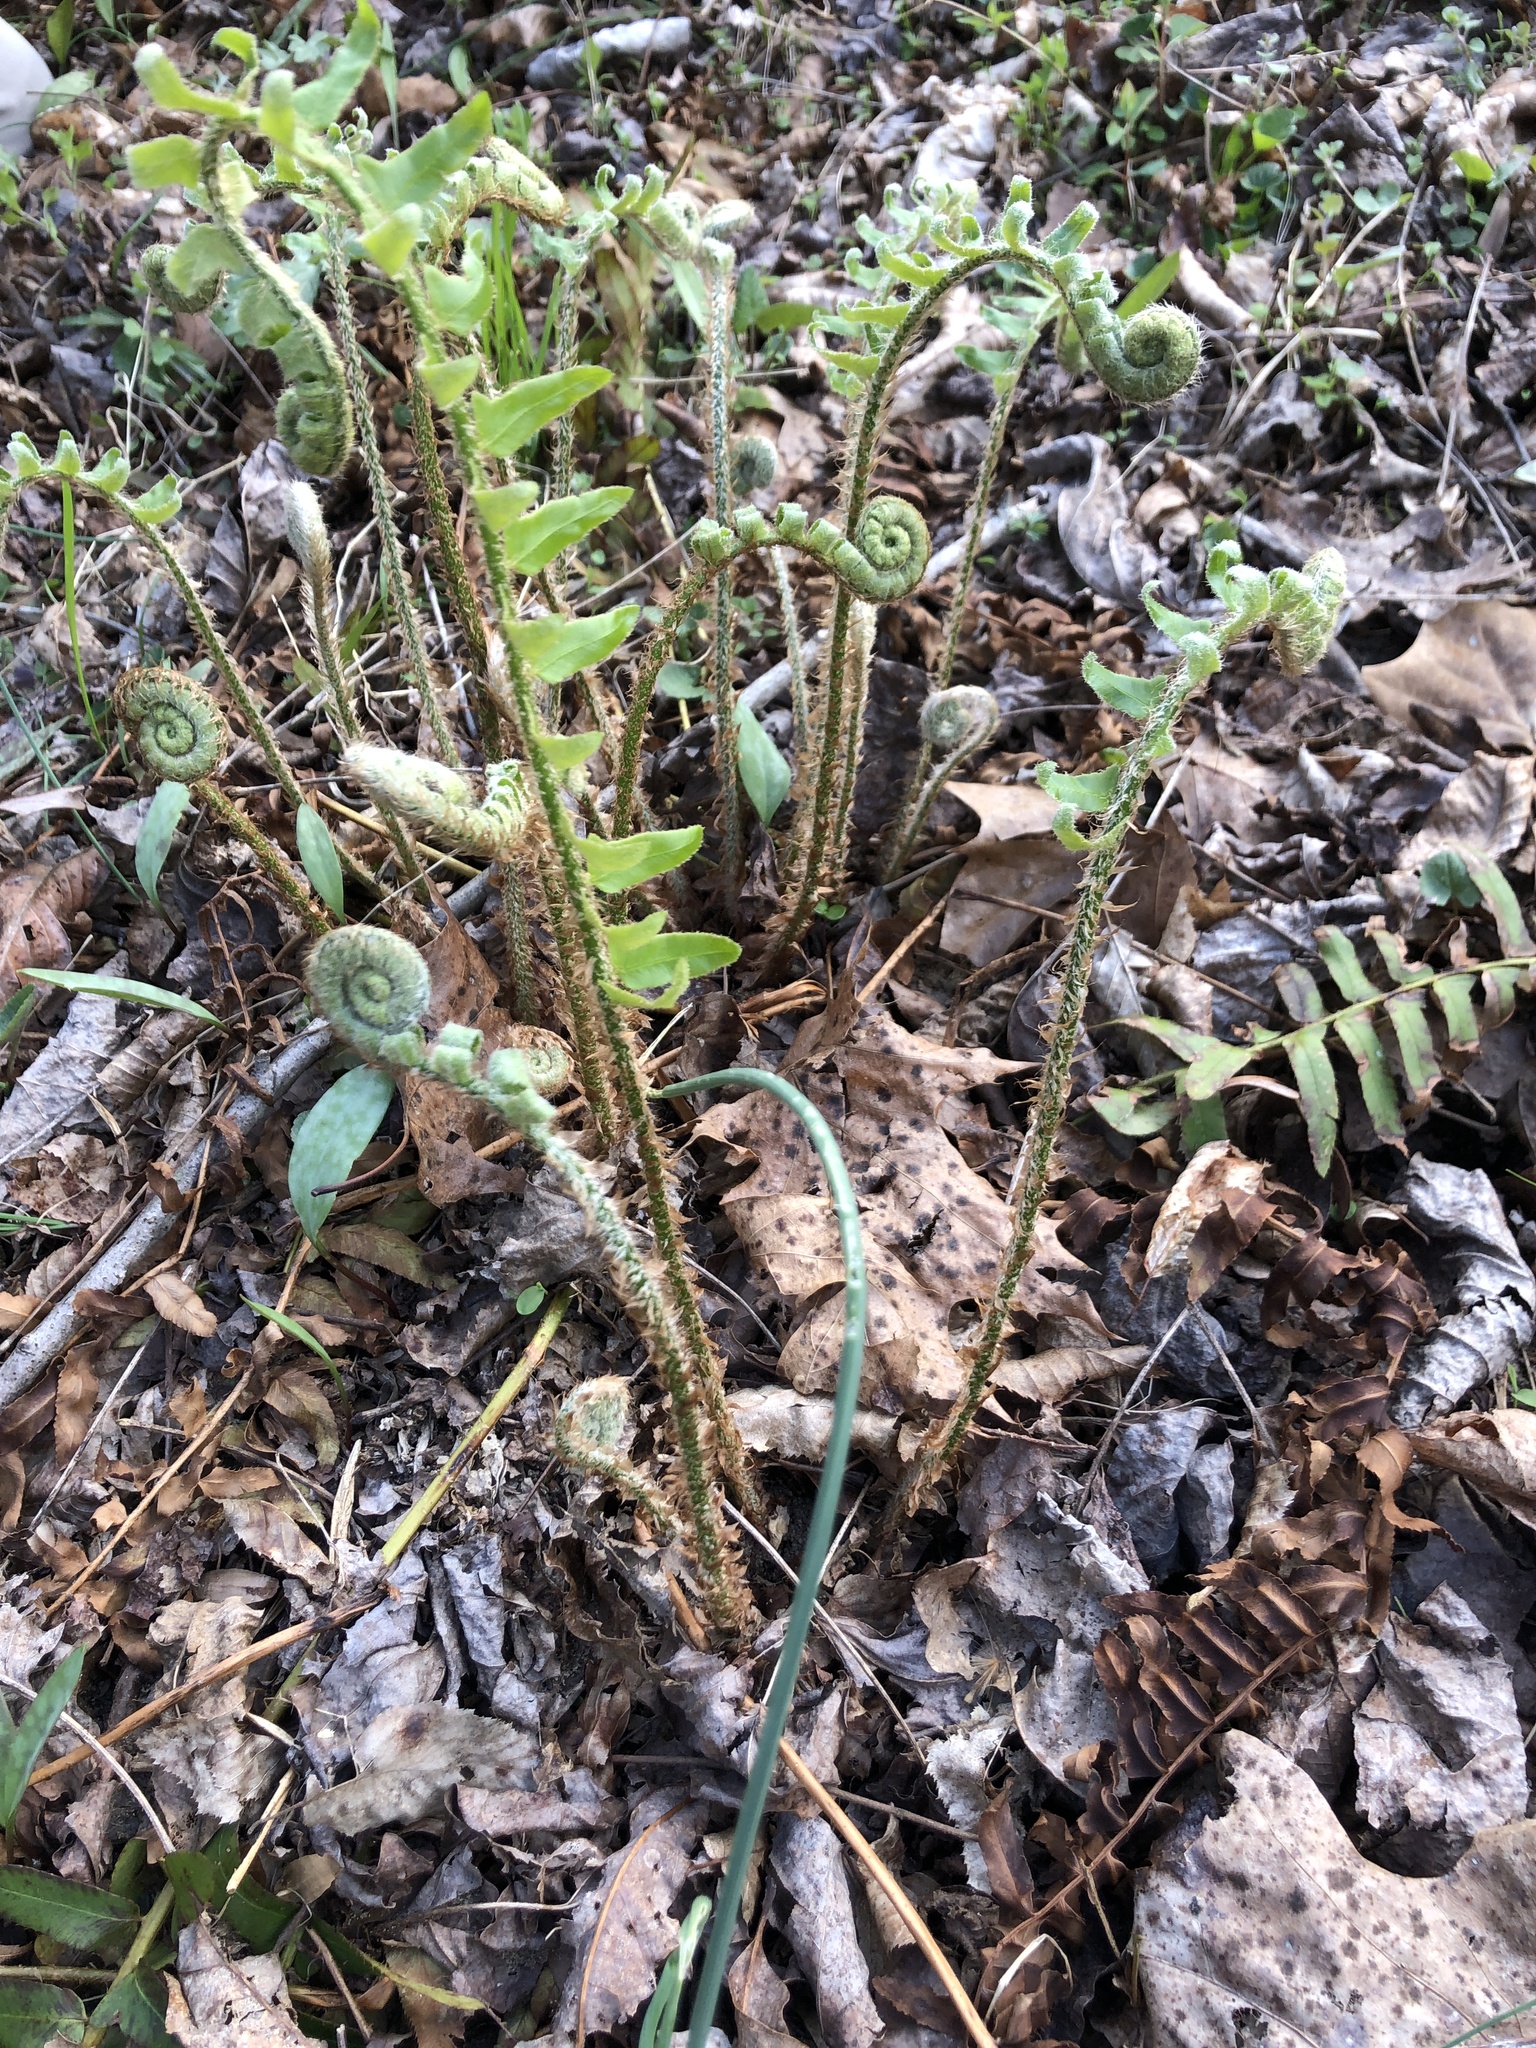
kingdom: Plantae
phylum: Tracheophyta
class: Polypodiopsida
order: Polypodiales
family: Dryopteridaceae
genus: Polystichum
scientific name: Polystichum acrostichoides
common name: Christmas fern
